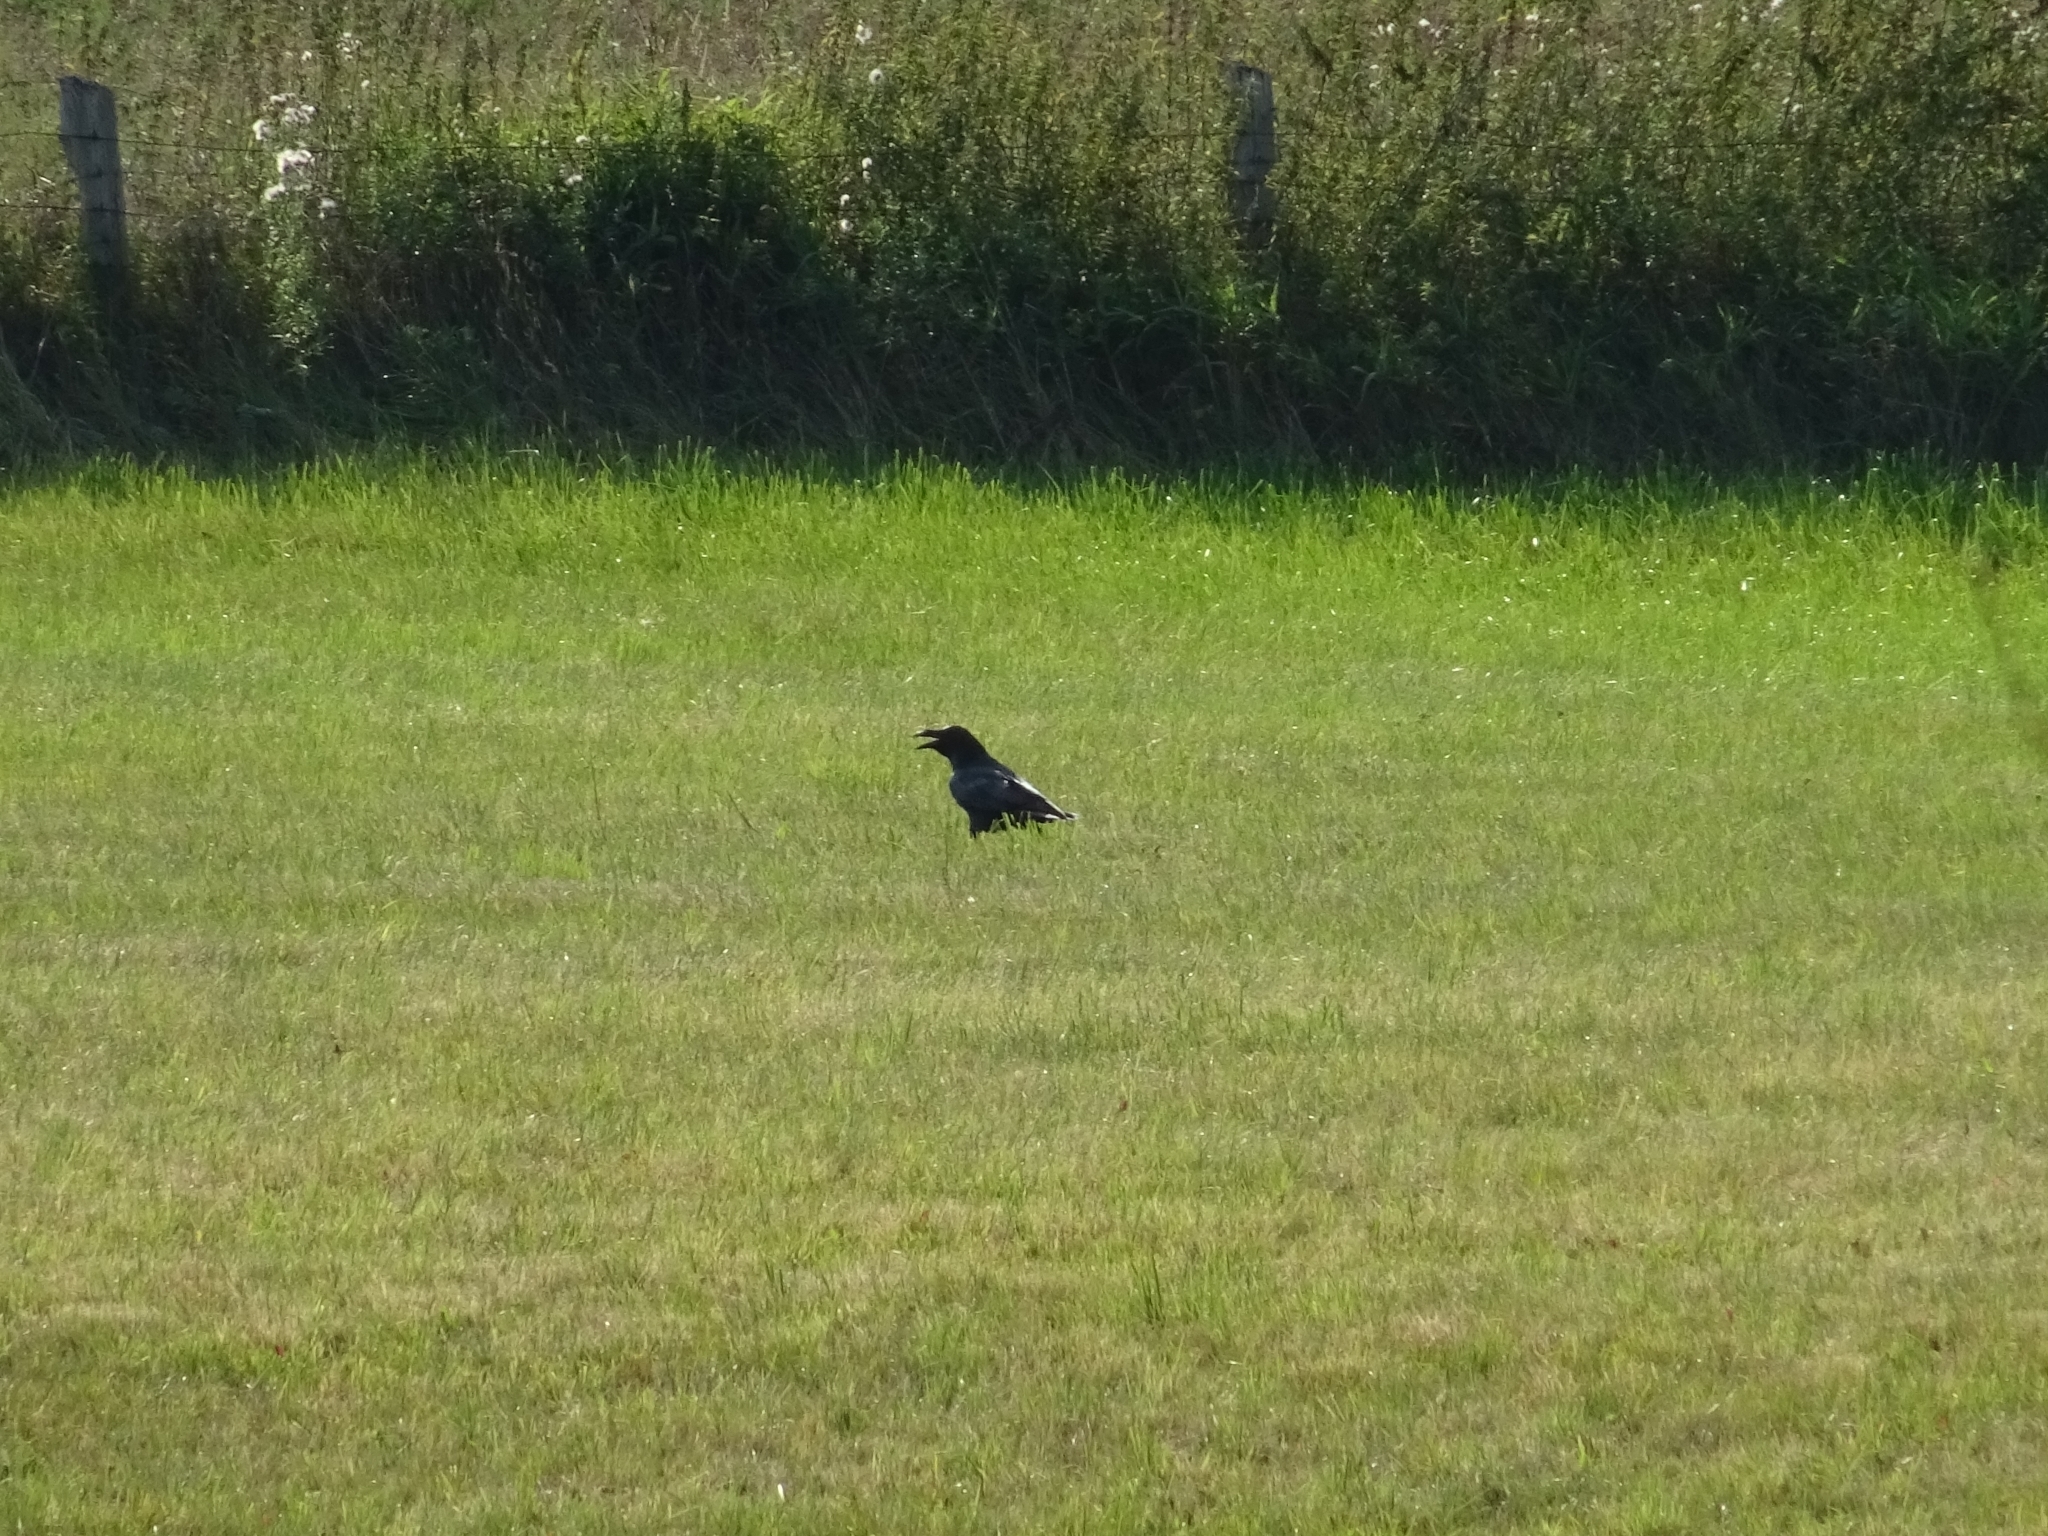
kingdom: Animalia
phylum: Chordata
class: Aves
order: Passeriformes
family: Corvidae
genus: Corvus
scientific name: Corvus corax
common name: Common raven
